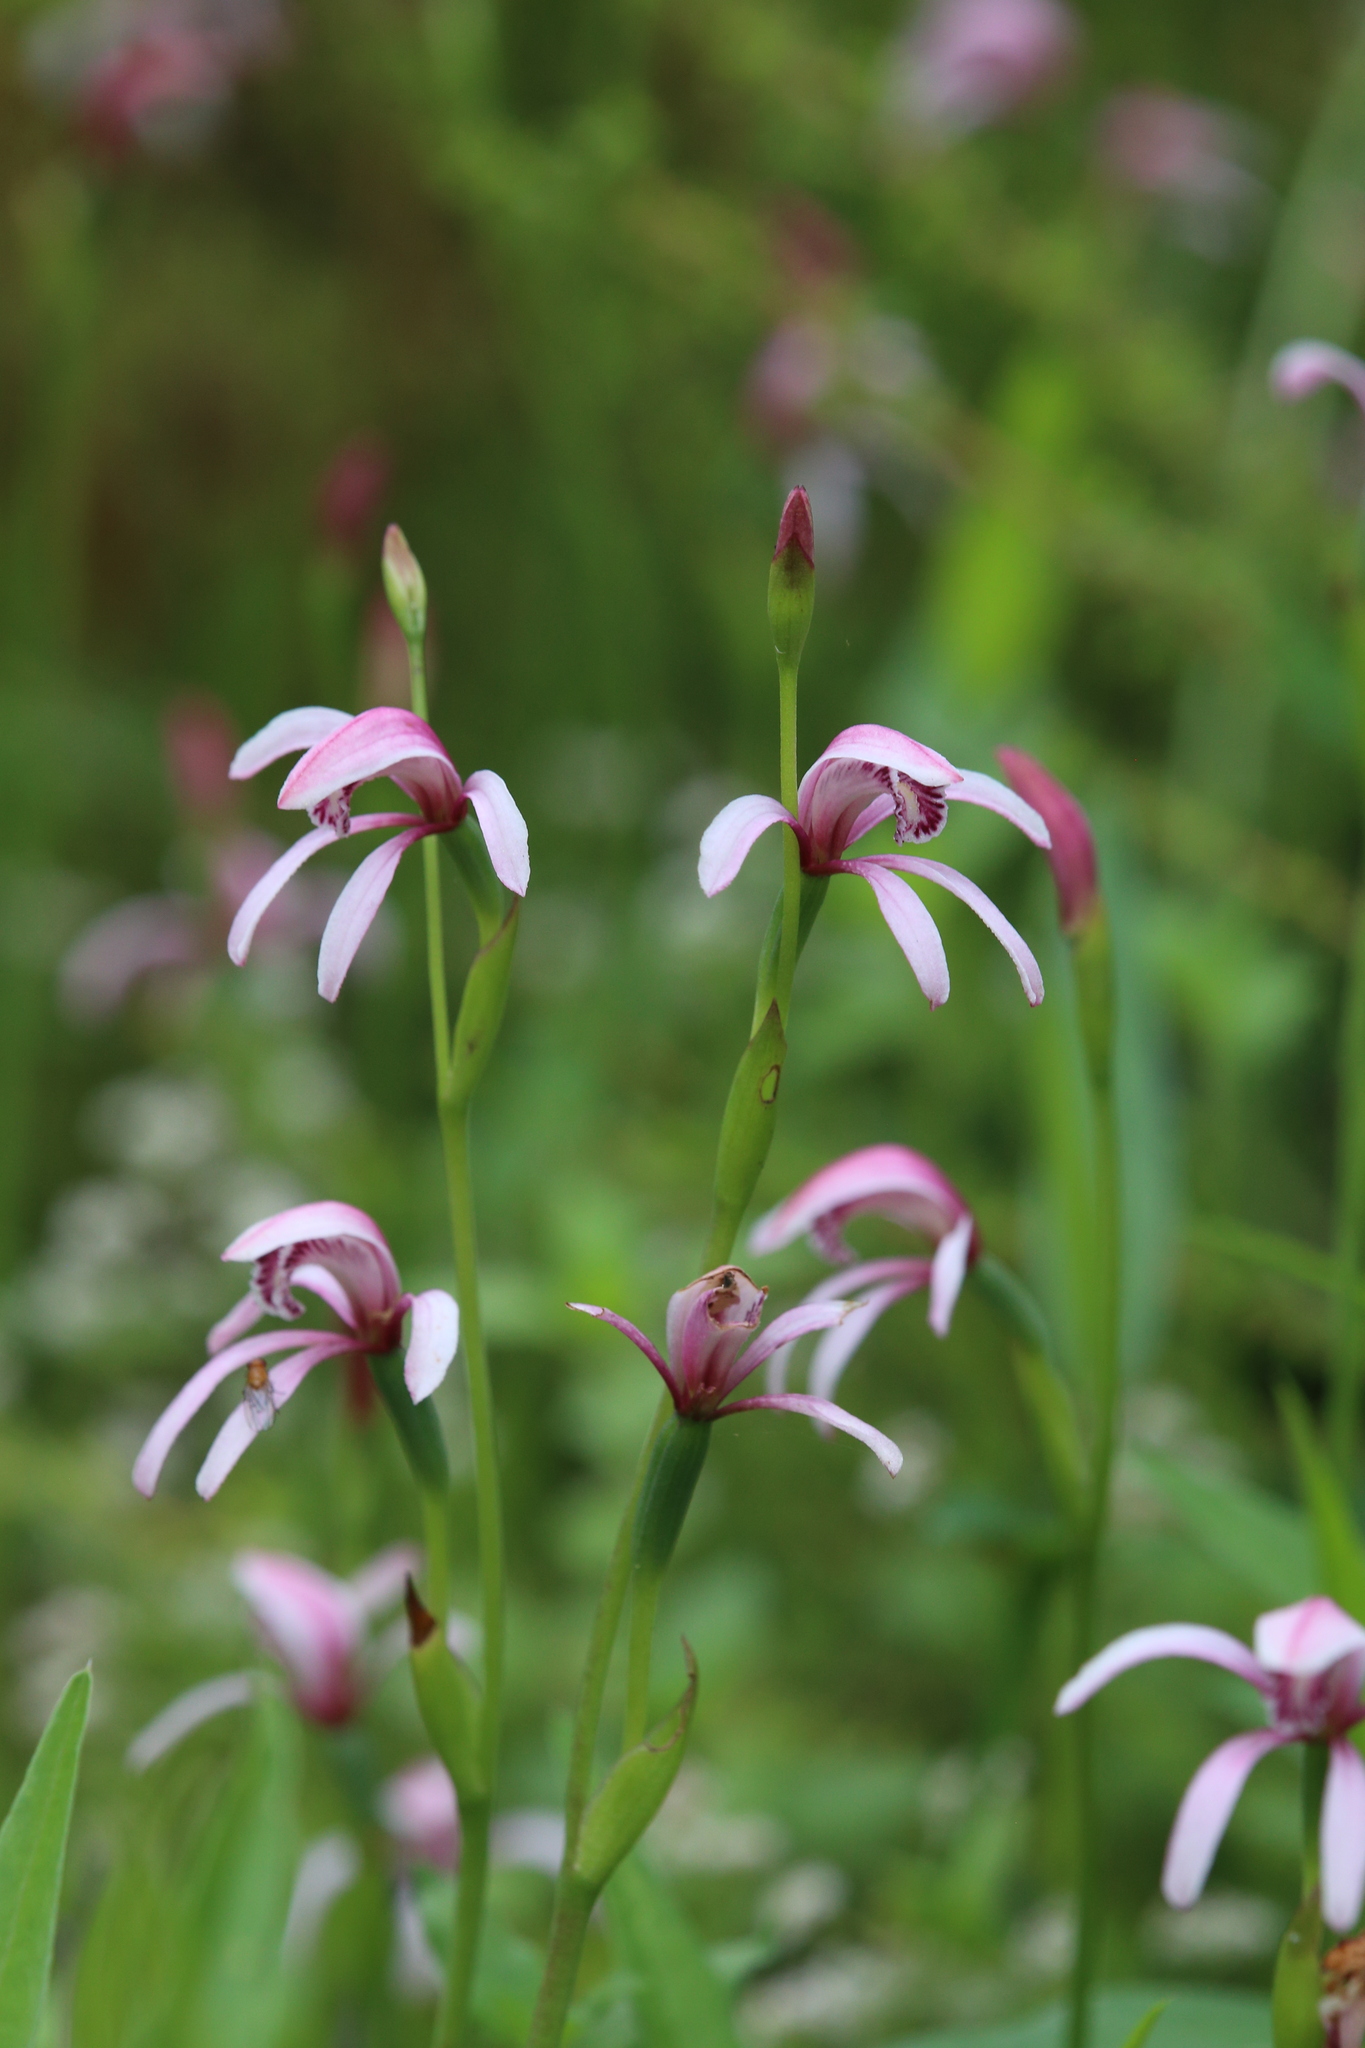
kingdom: Plantae
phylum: Tracheophyta
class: Liliopsida
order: Asparagales
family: Orchidaceae
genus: Pyrorchis
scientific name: Pyrorchis forrestii
